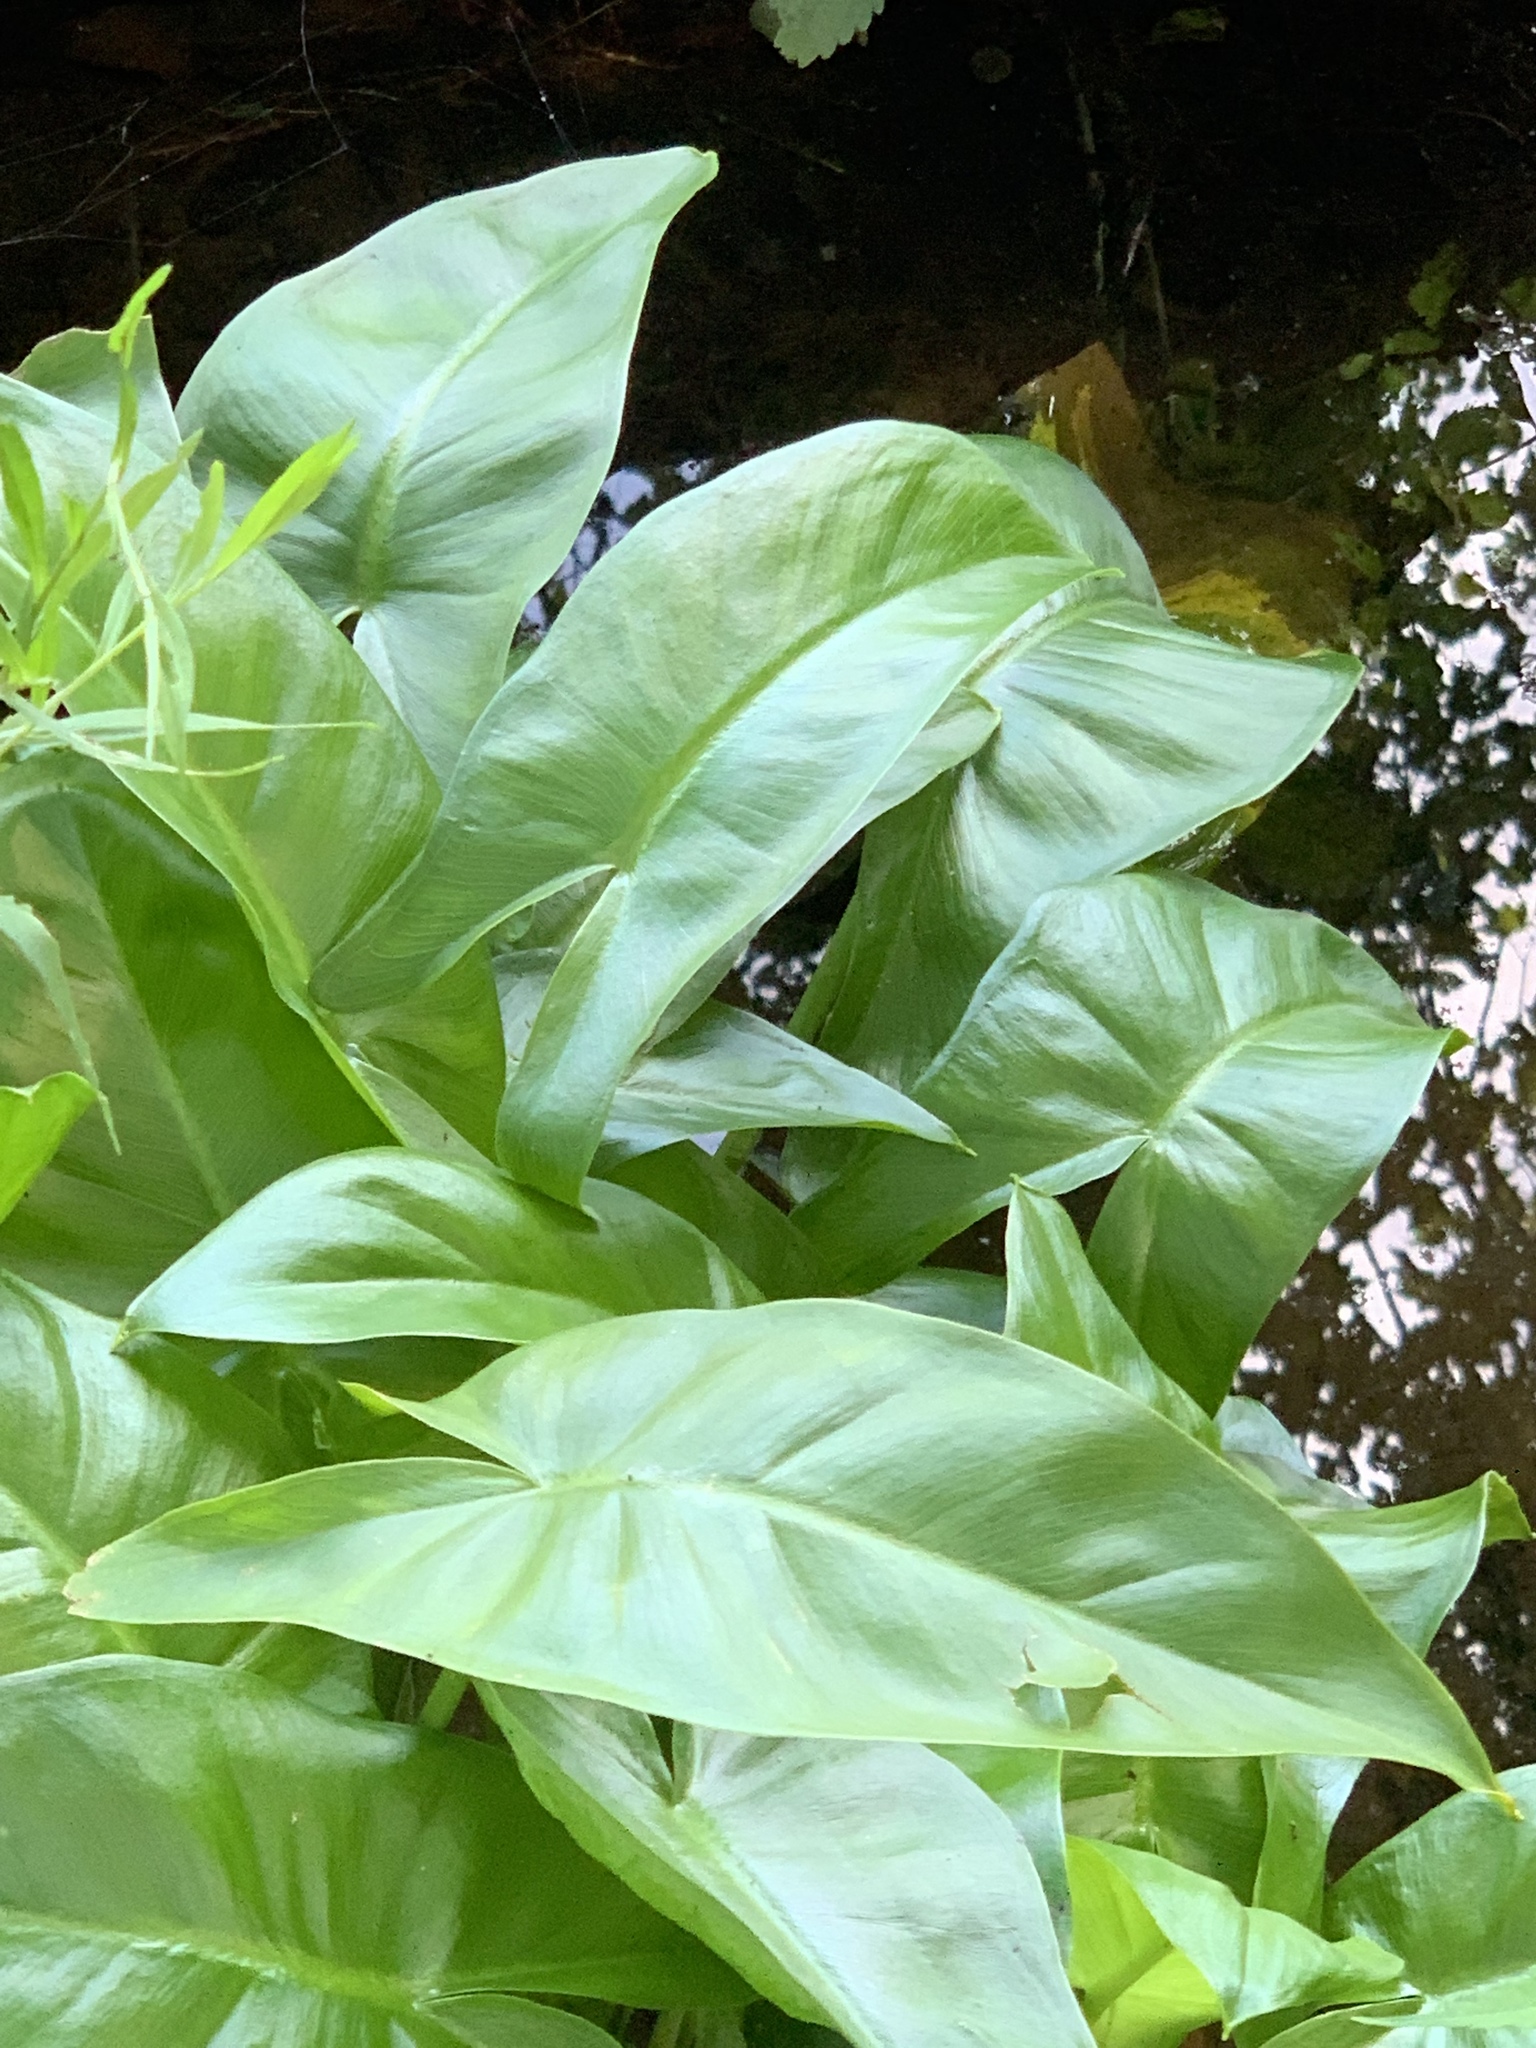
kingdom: Plantae
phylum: Tracheophyta
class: Liliopsida
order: Alismatales
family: Araceae
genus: Peltandra
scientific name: Peltandra virginica
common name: Arrow arum
